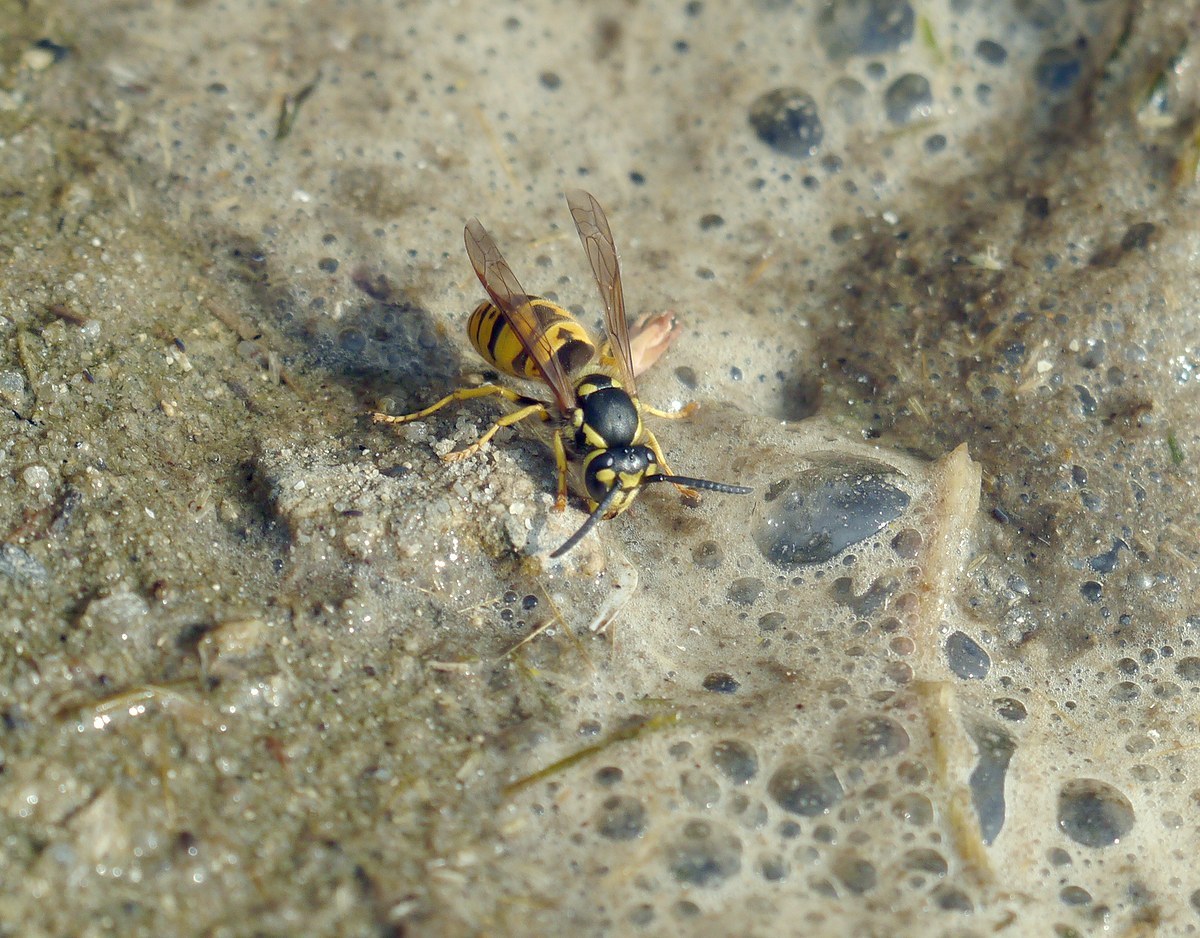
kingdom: Animalia
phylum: Arthropoda
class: Insecta
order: Hymenoptera
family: Vespidae
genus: Vespula
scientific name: Vespula germanica
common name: German wasp
